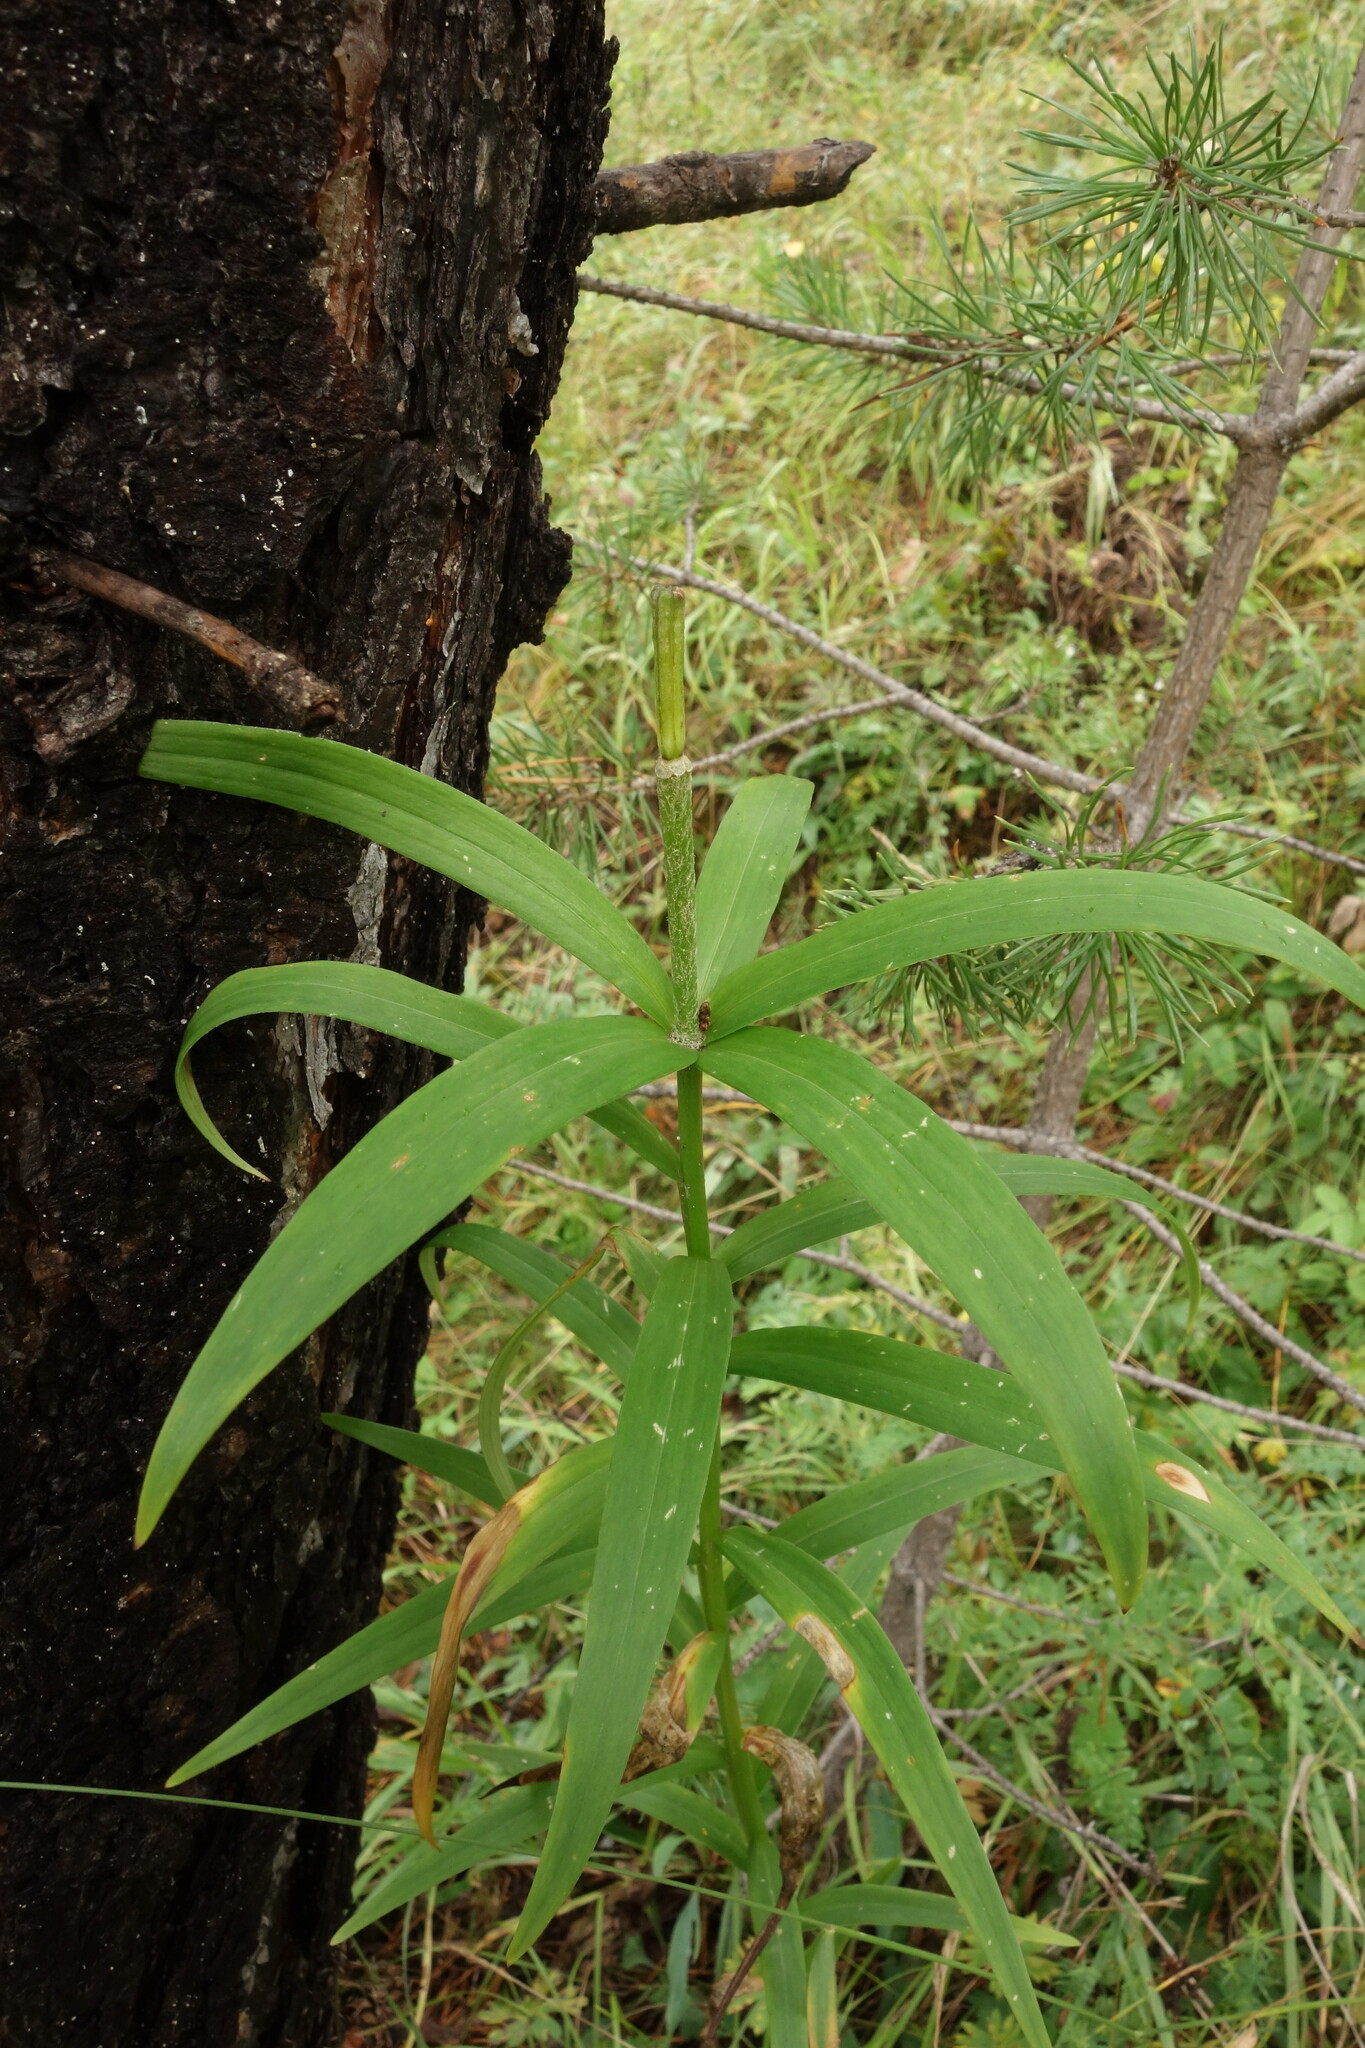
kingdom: Plantae
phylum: Tracheophyta
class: Liliopsida
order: Liliales
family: Liliaceae
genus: Lilium
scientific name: Lilium pensylvanicum
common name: Candlestick lily
